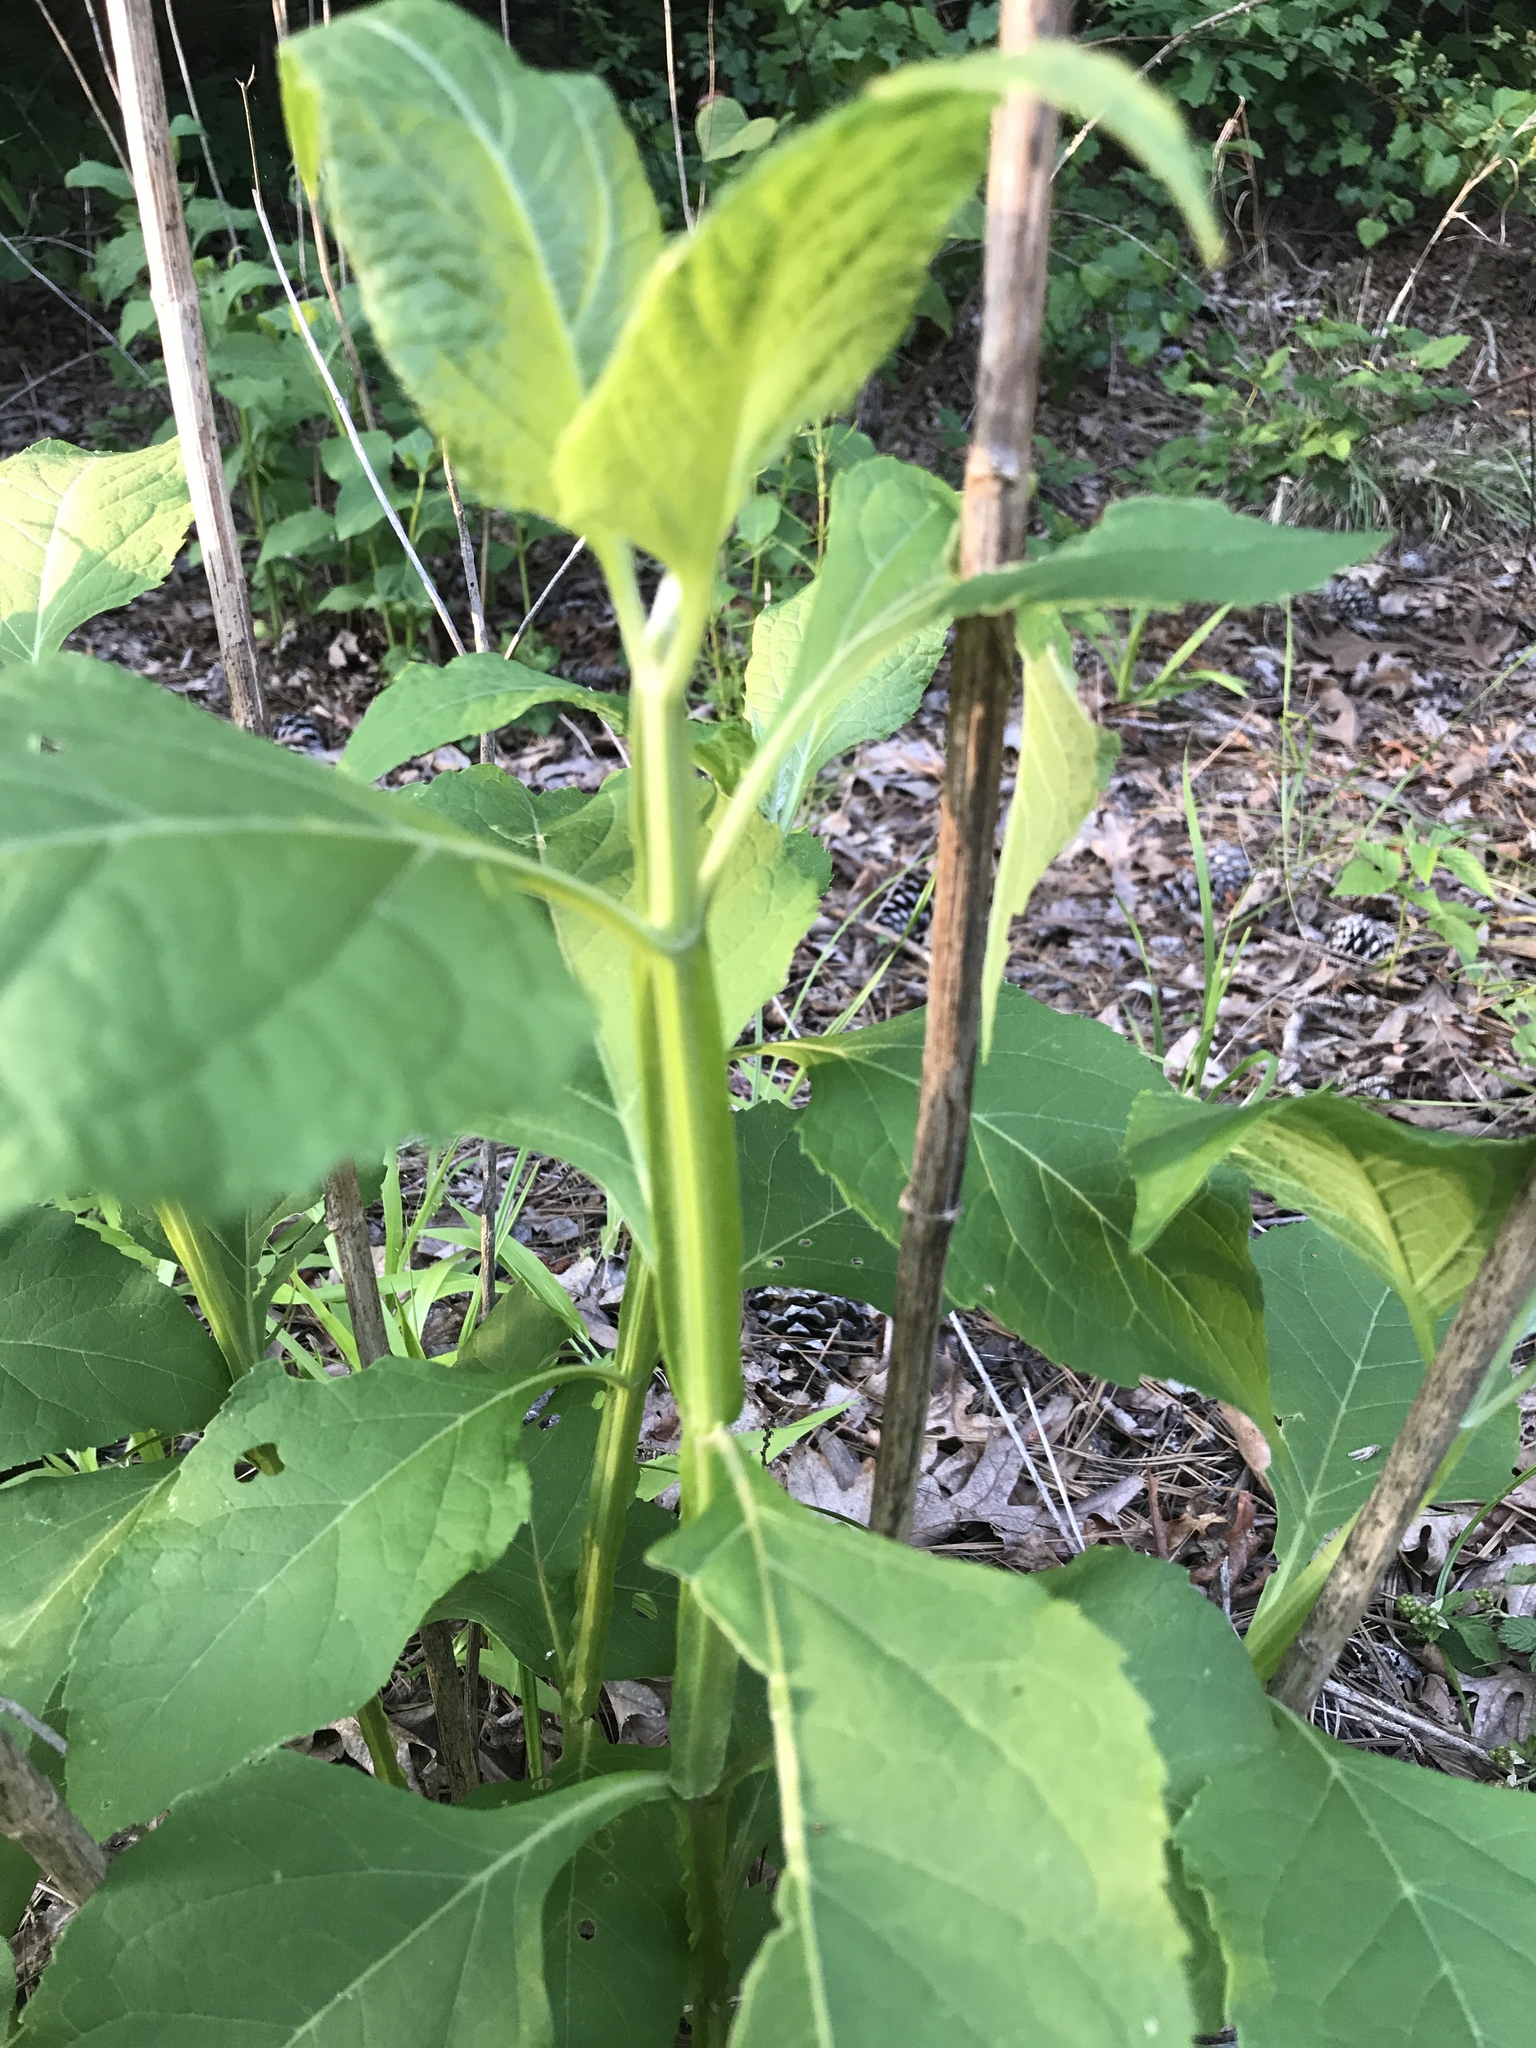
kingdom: Plantae
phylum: Tracheophyta
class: Magnoliopsida
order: Asterales
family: Asteraceae
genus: Verbesina
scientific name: Verbesina occidentalis
